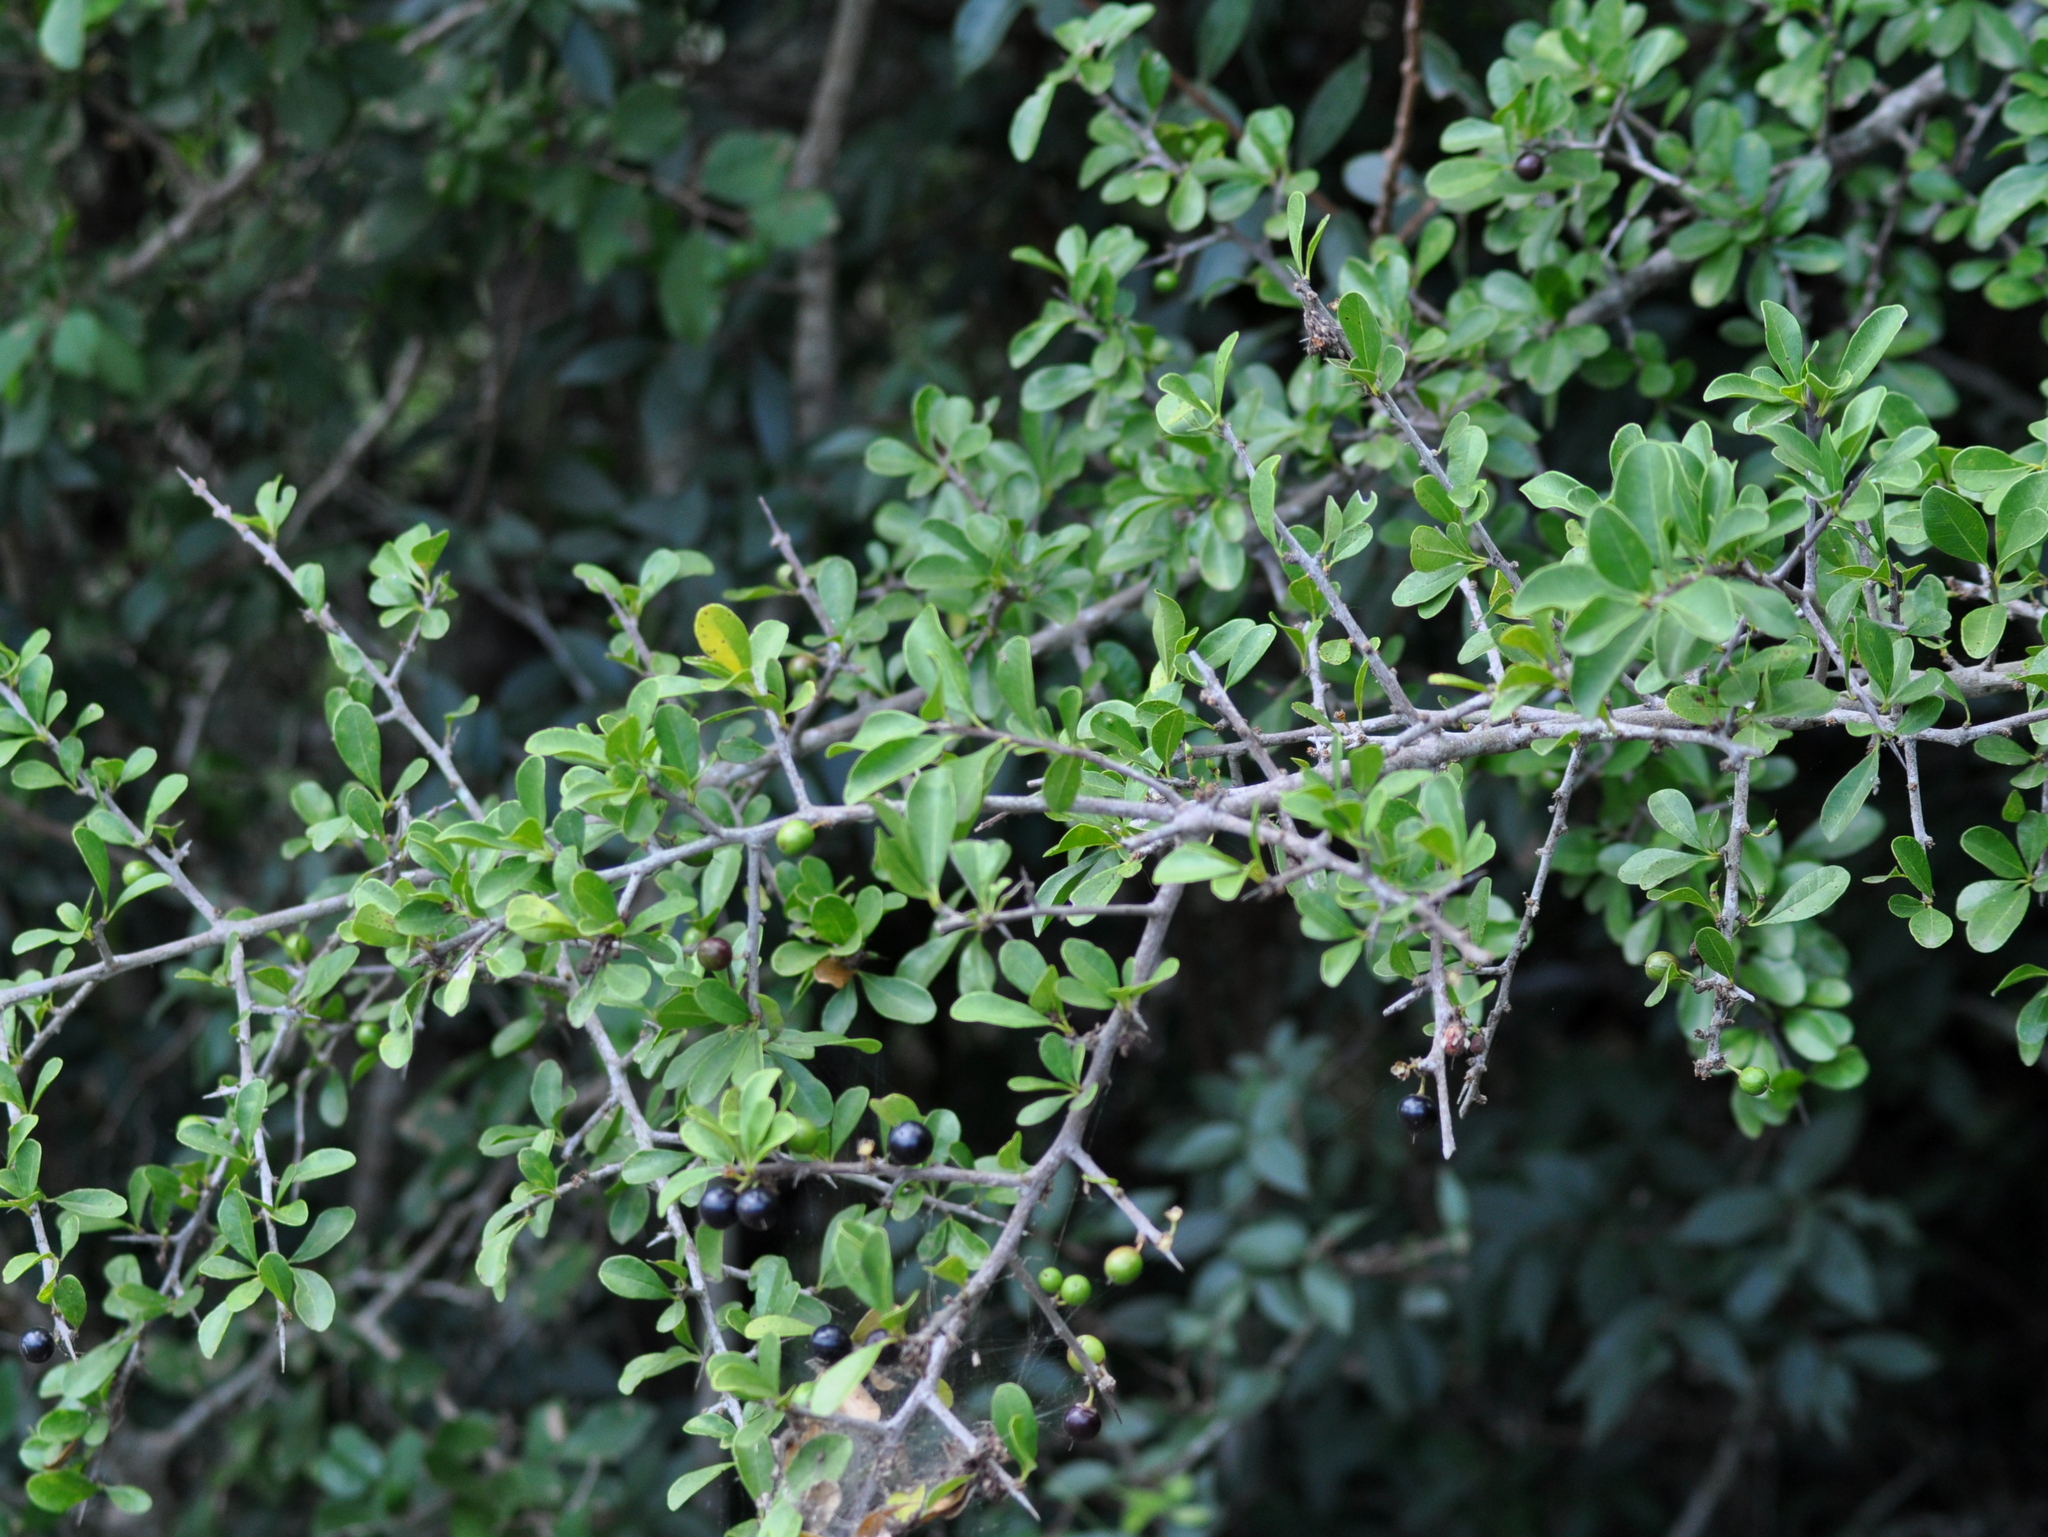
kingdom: Plantae
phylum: Tracheophyta
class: Magnoliopsida
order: Ericales
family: Sapotaceae
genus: Sideroxylon
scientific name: Sideroxylon obtusifolium
